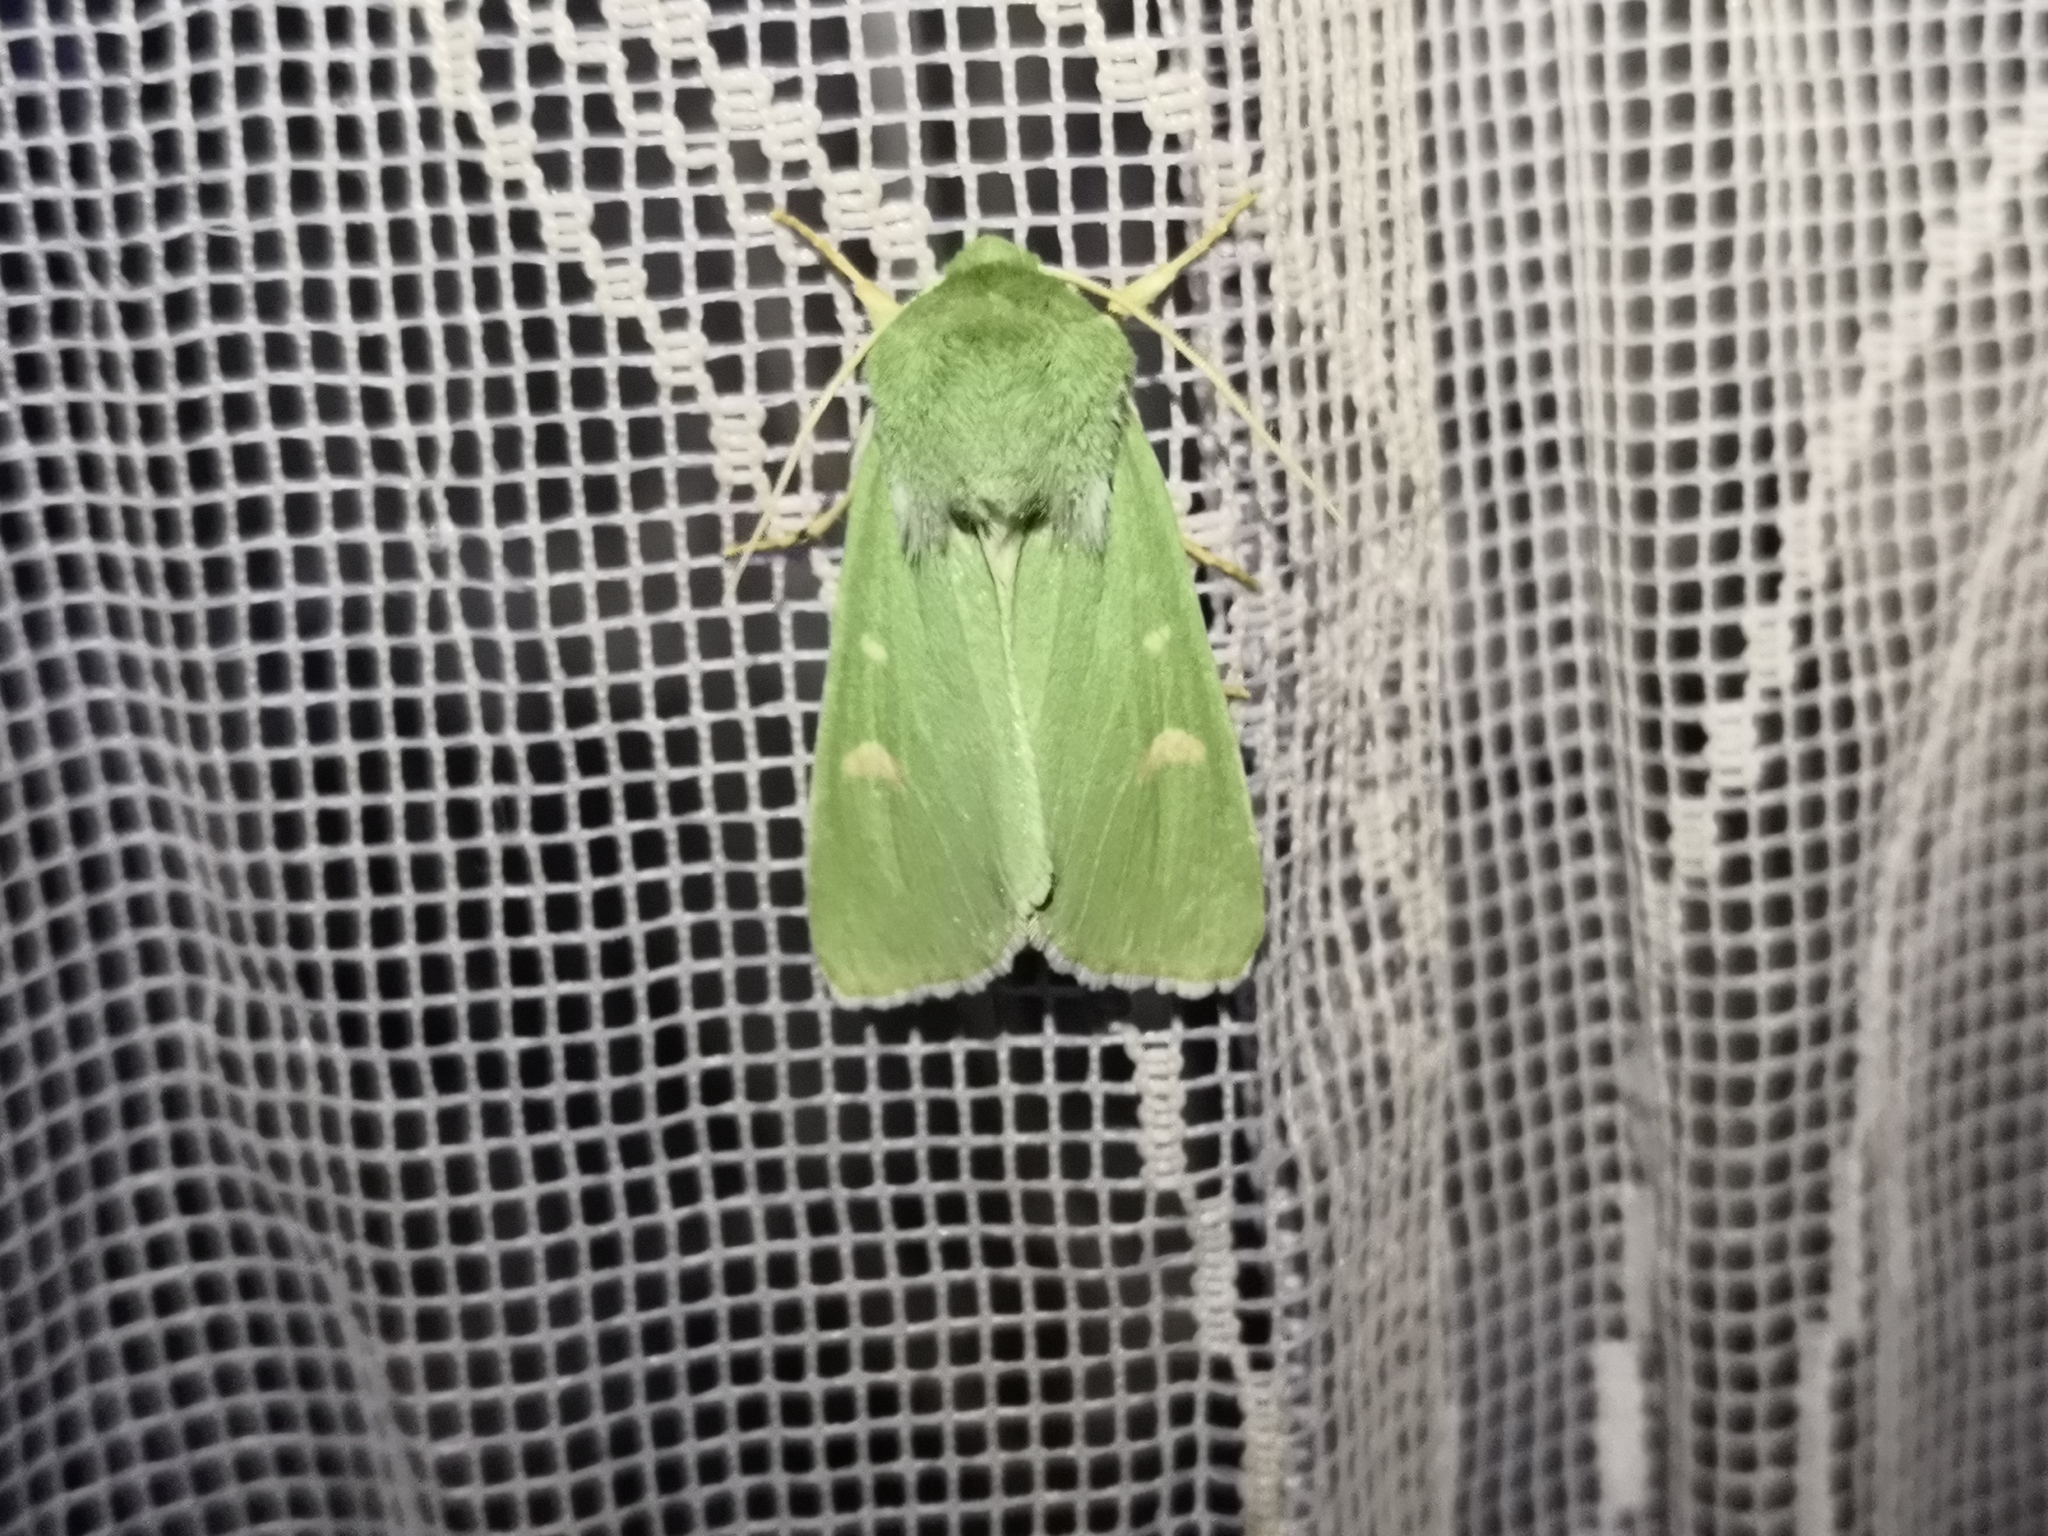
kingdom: Animalia
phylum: Arthropoda
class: Insecta
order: Lepidoptera
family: Noctuidae
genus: Calamia
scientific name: Calamia tridens
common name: Burren green
